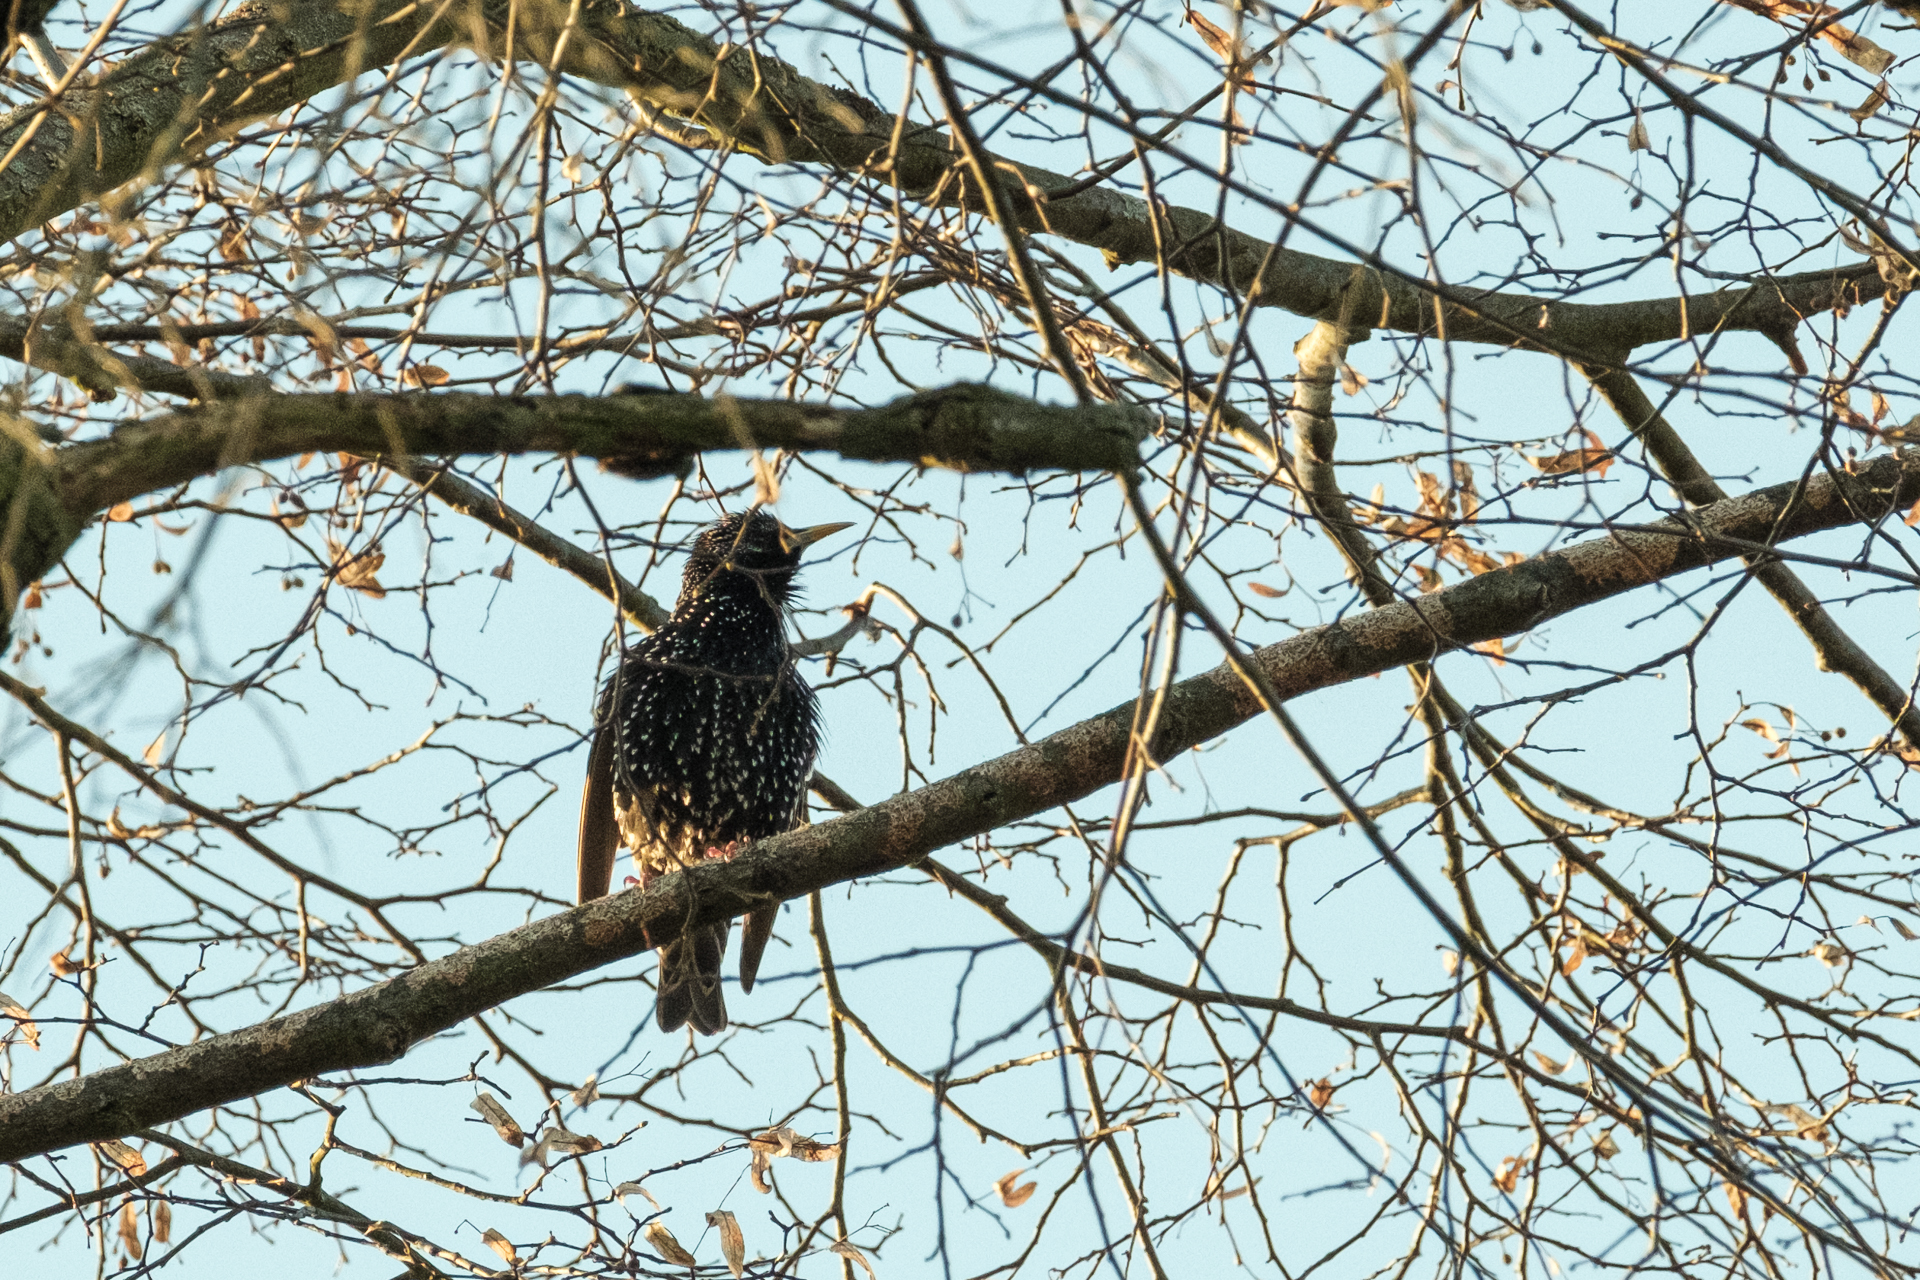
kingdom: Animalia
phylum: Chordata
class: Aves
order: Passeriformes
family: Sturnidae
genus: Sturnus
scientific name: Sturnus vulgaris
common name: Common starling
